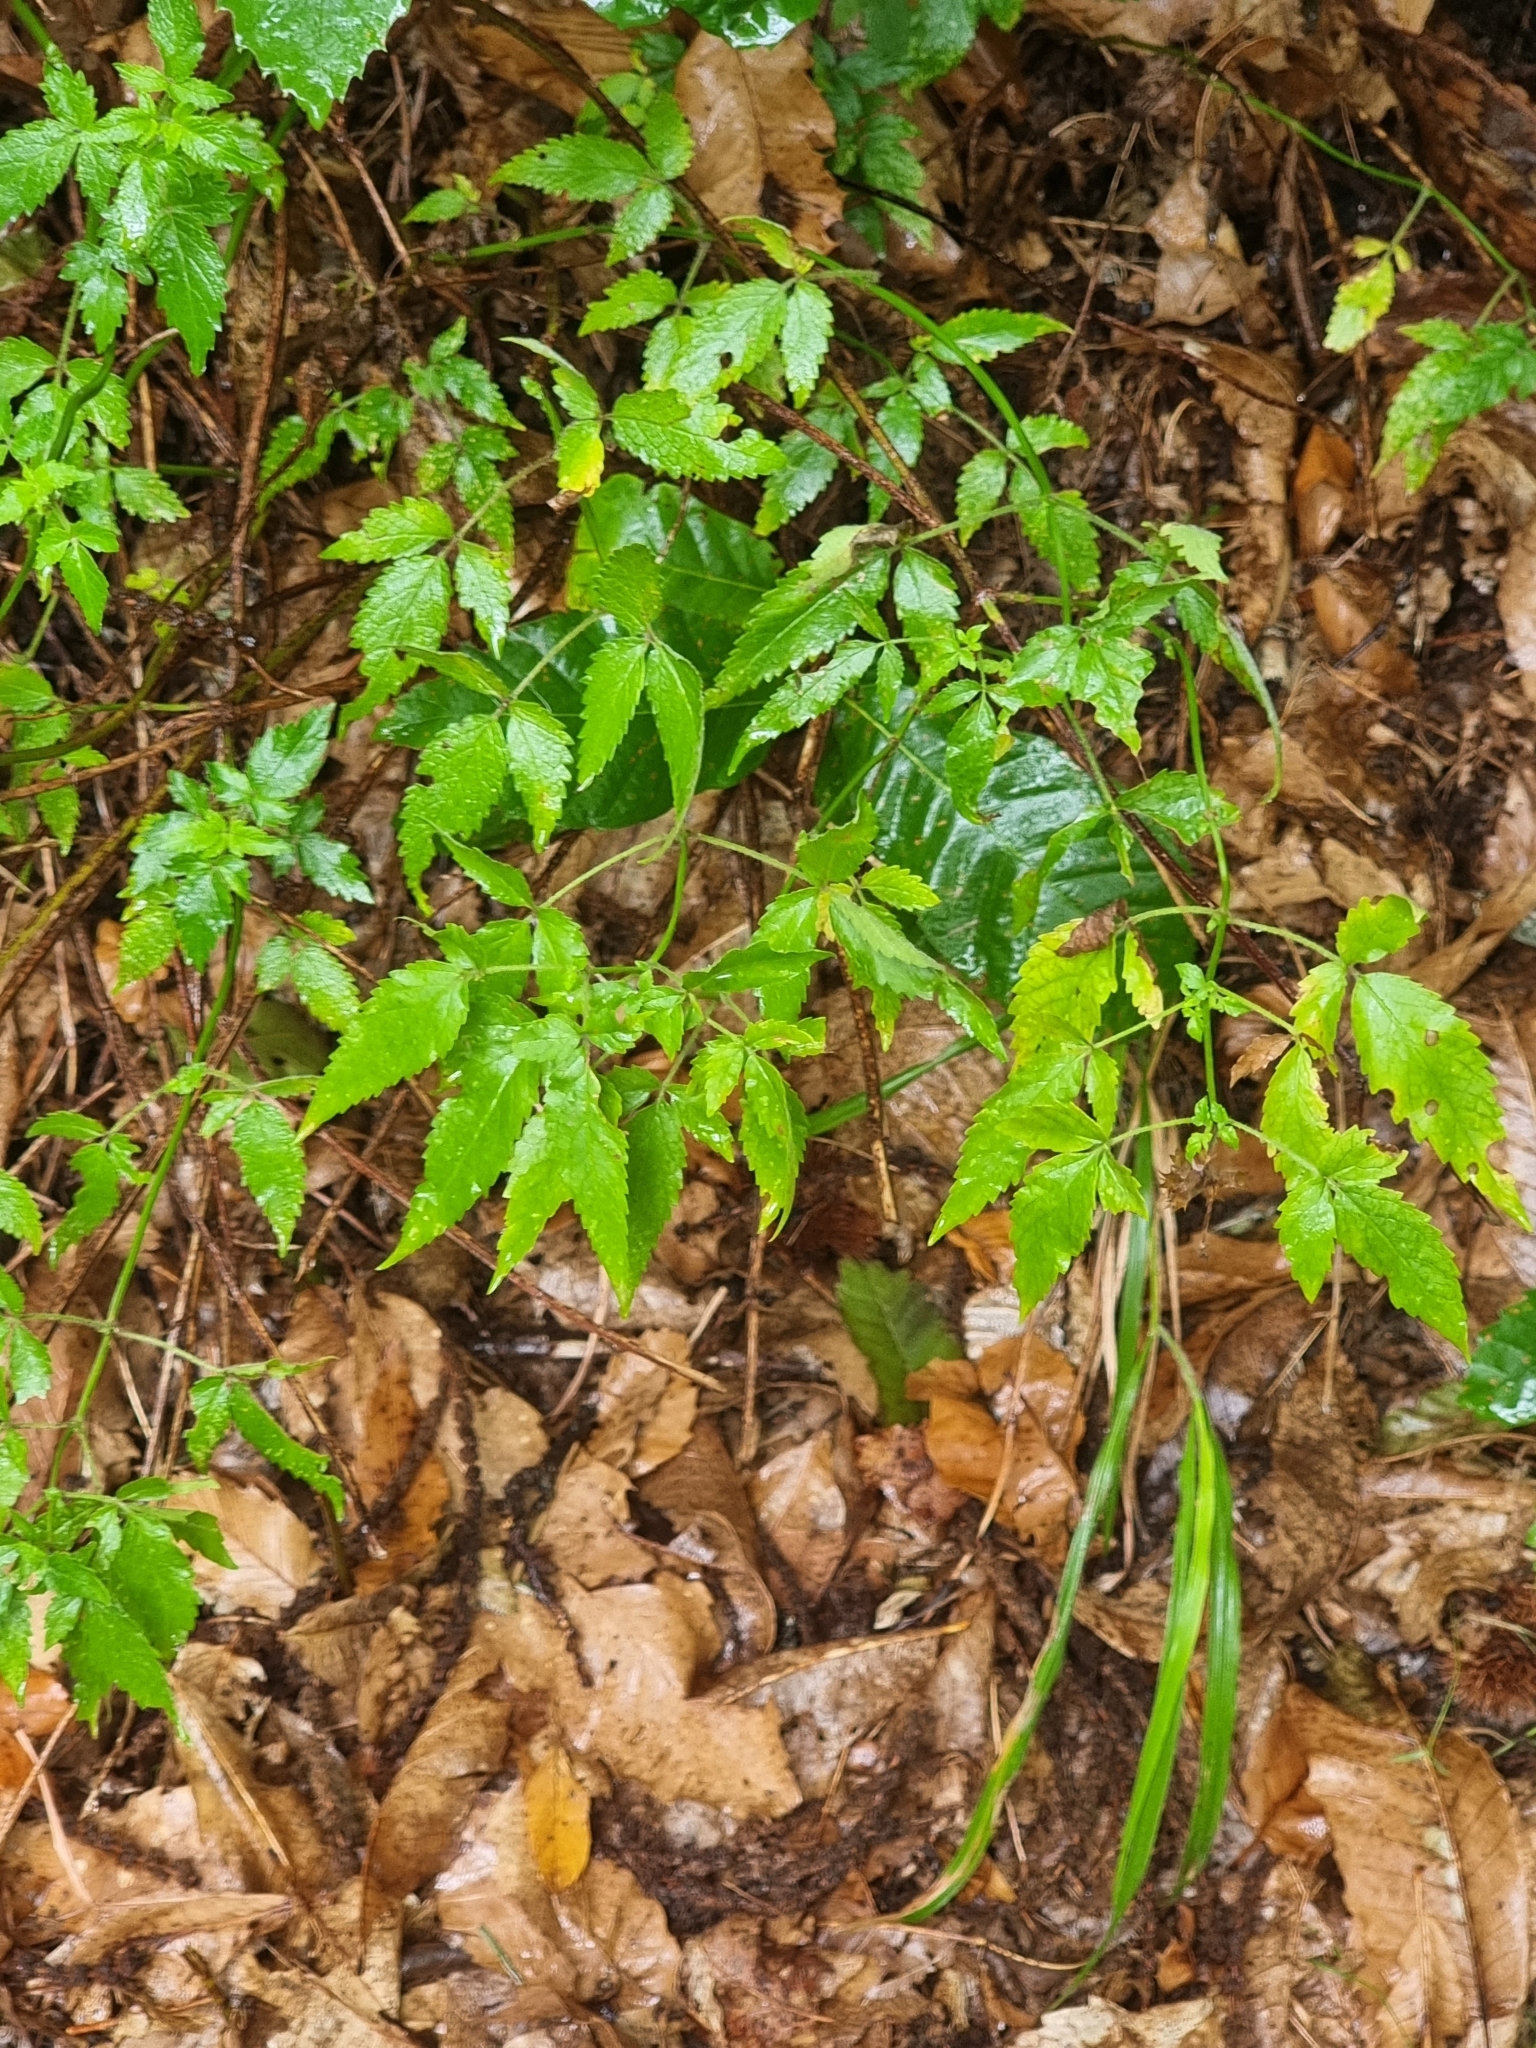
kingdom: Plantae
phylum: Tracheophyta
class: Magnoliopsida
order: Lamiales
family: Lamiaceae
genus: Cedronella
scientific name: Cedronella canariensis
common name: Canary islands balm
